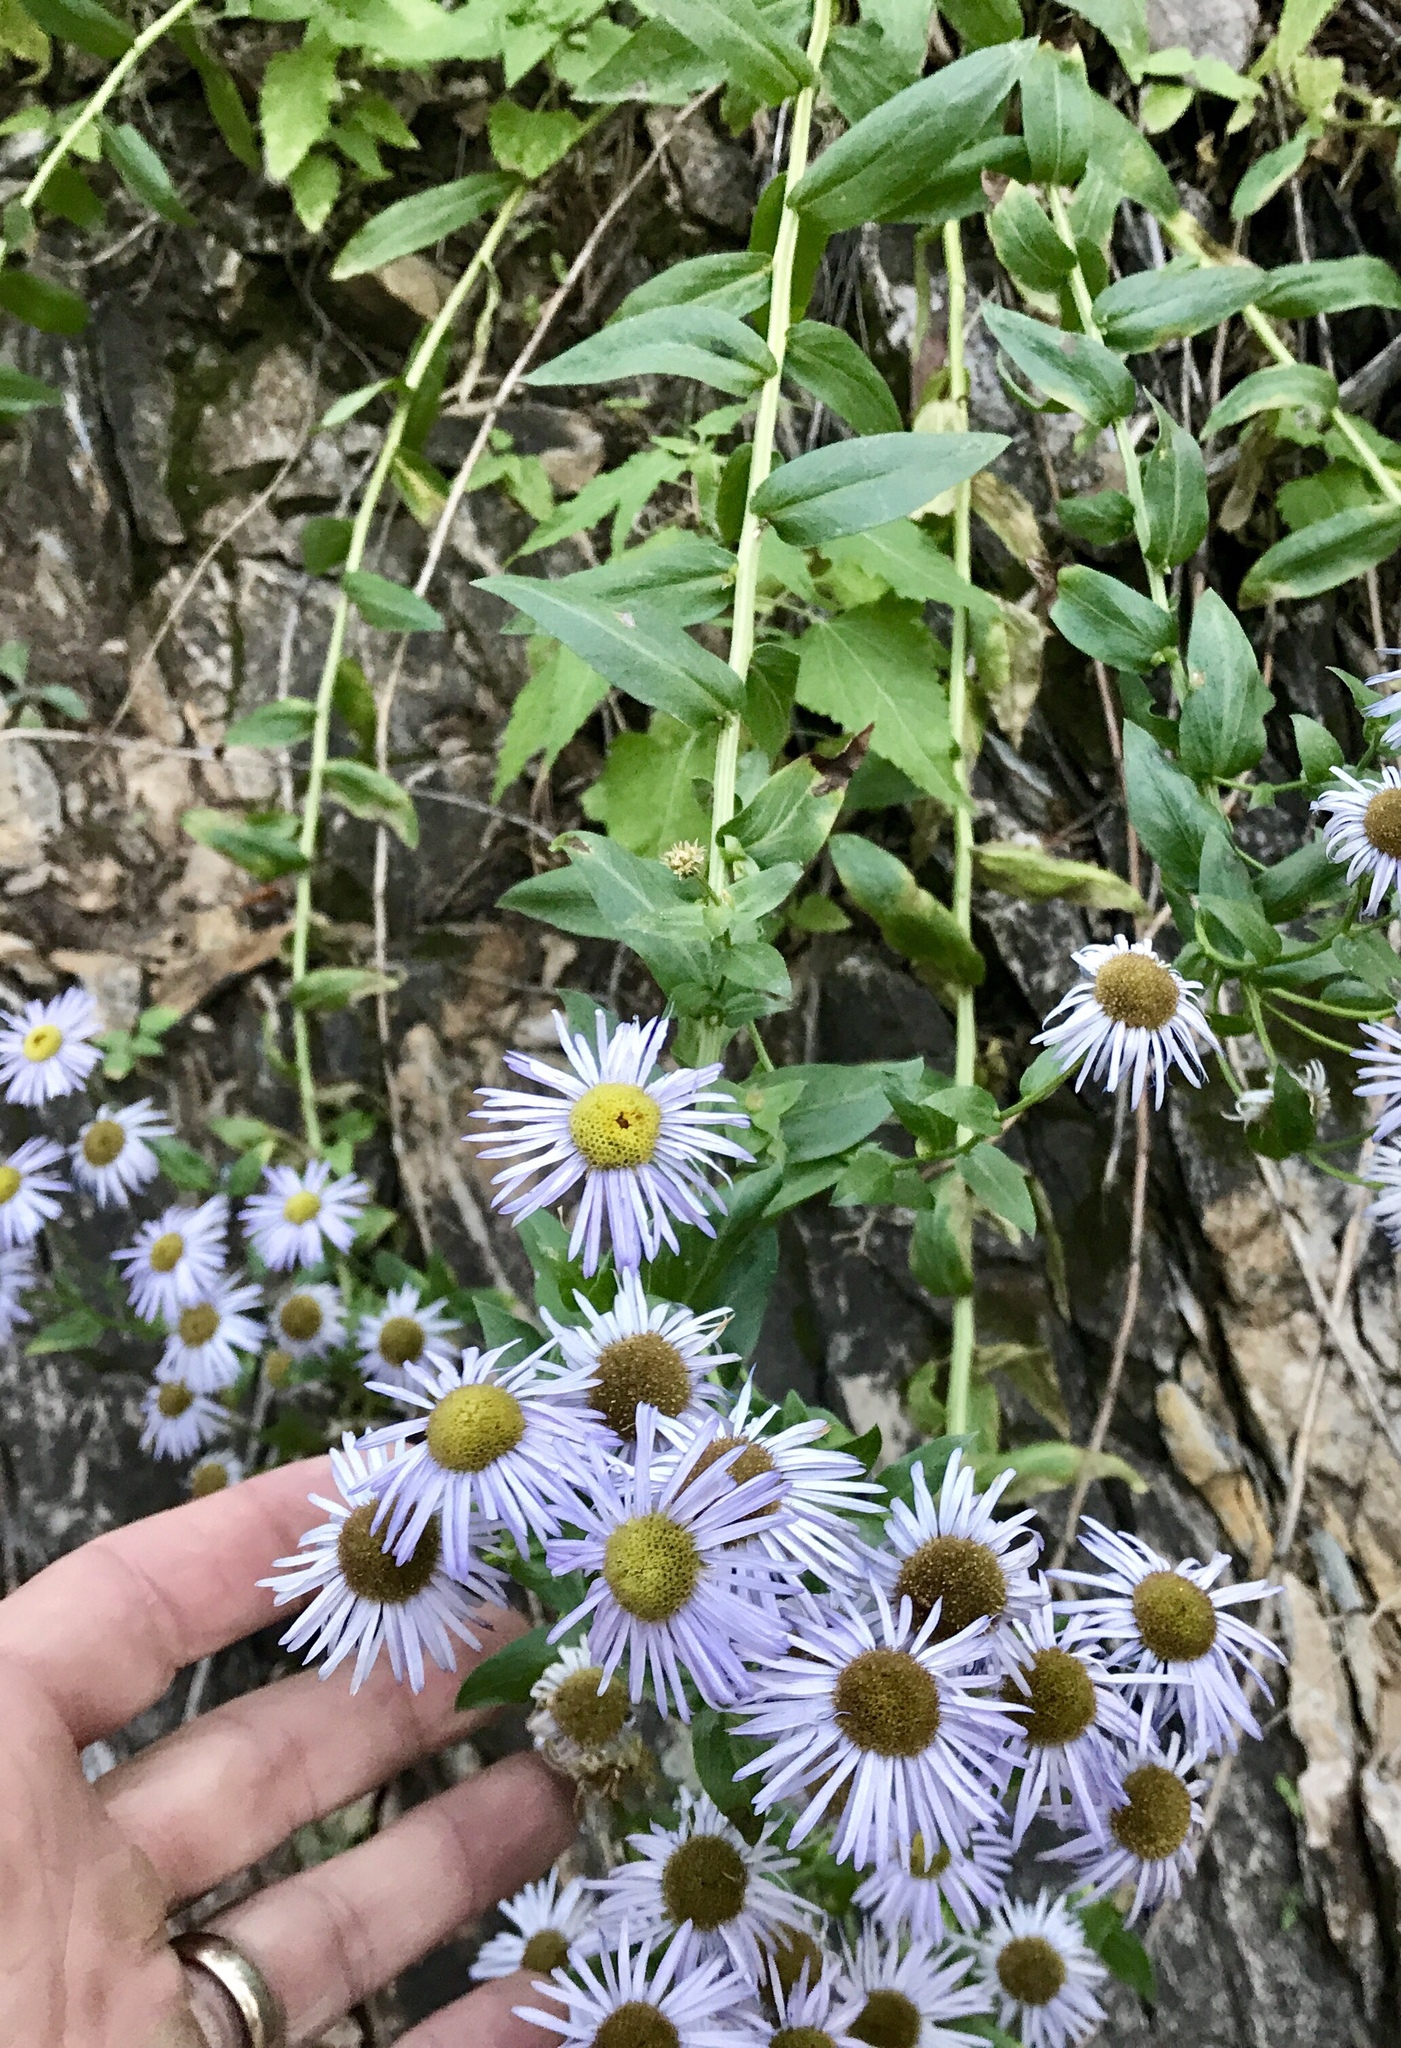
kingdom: Plantae
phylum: Tracheophyta
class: Magnoliopsida
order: Asterales
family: Asteraceae
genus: Erigeron
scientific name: Erigeron vreelandii
